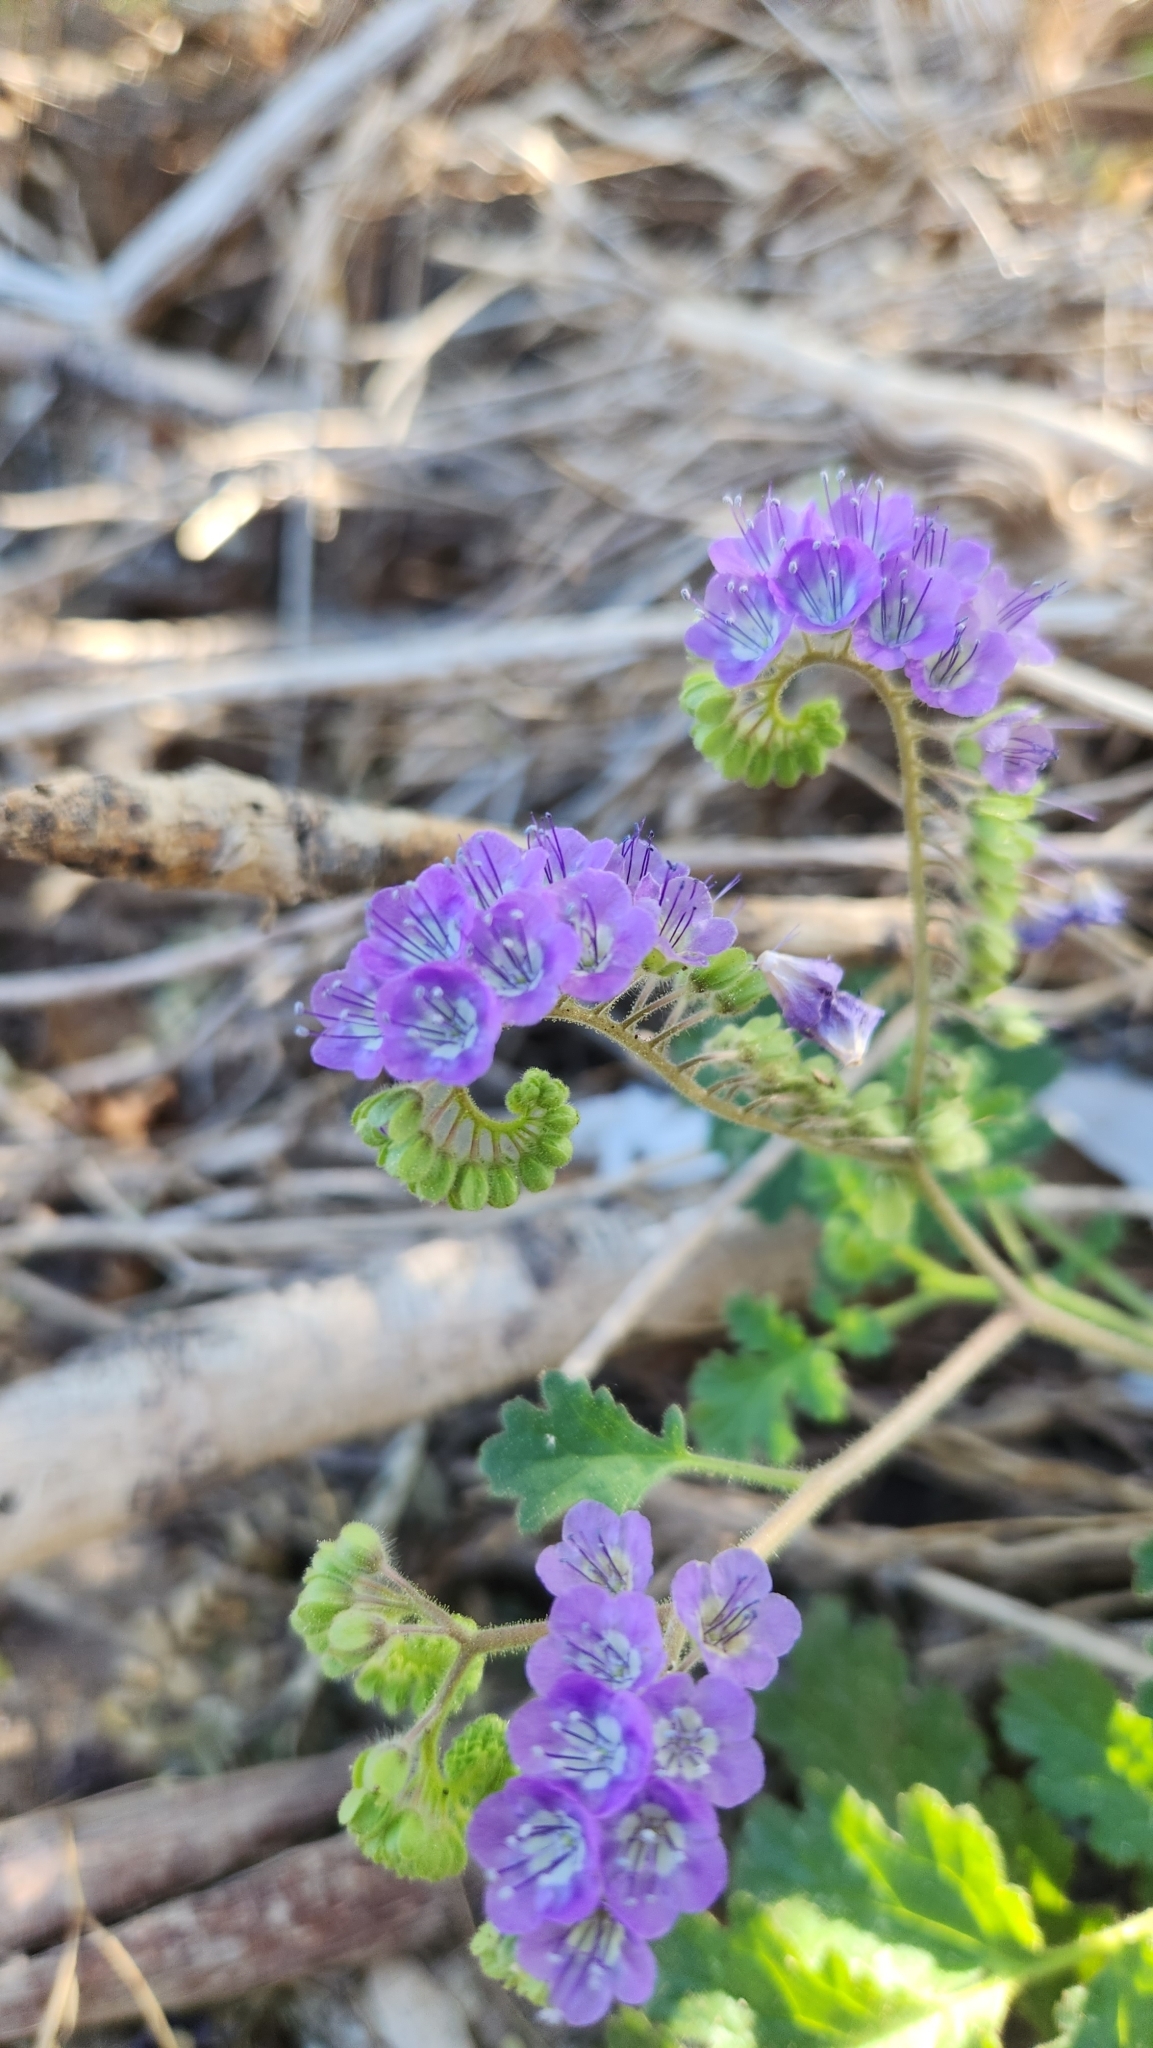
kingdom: Plantae
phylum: Tracheophyta
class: Magnoliopsida
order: Boraginales
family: Hydrophyllaceae
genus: Phacelia
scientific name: Phacelia scariosa
